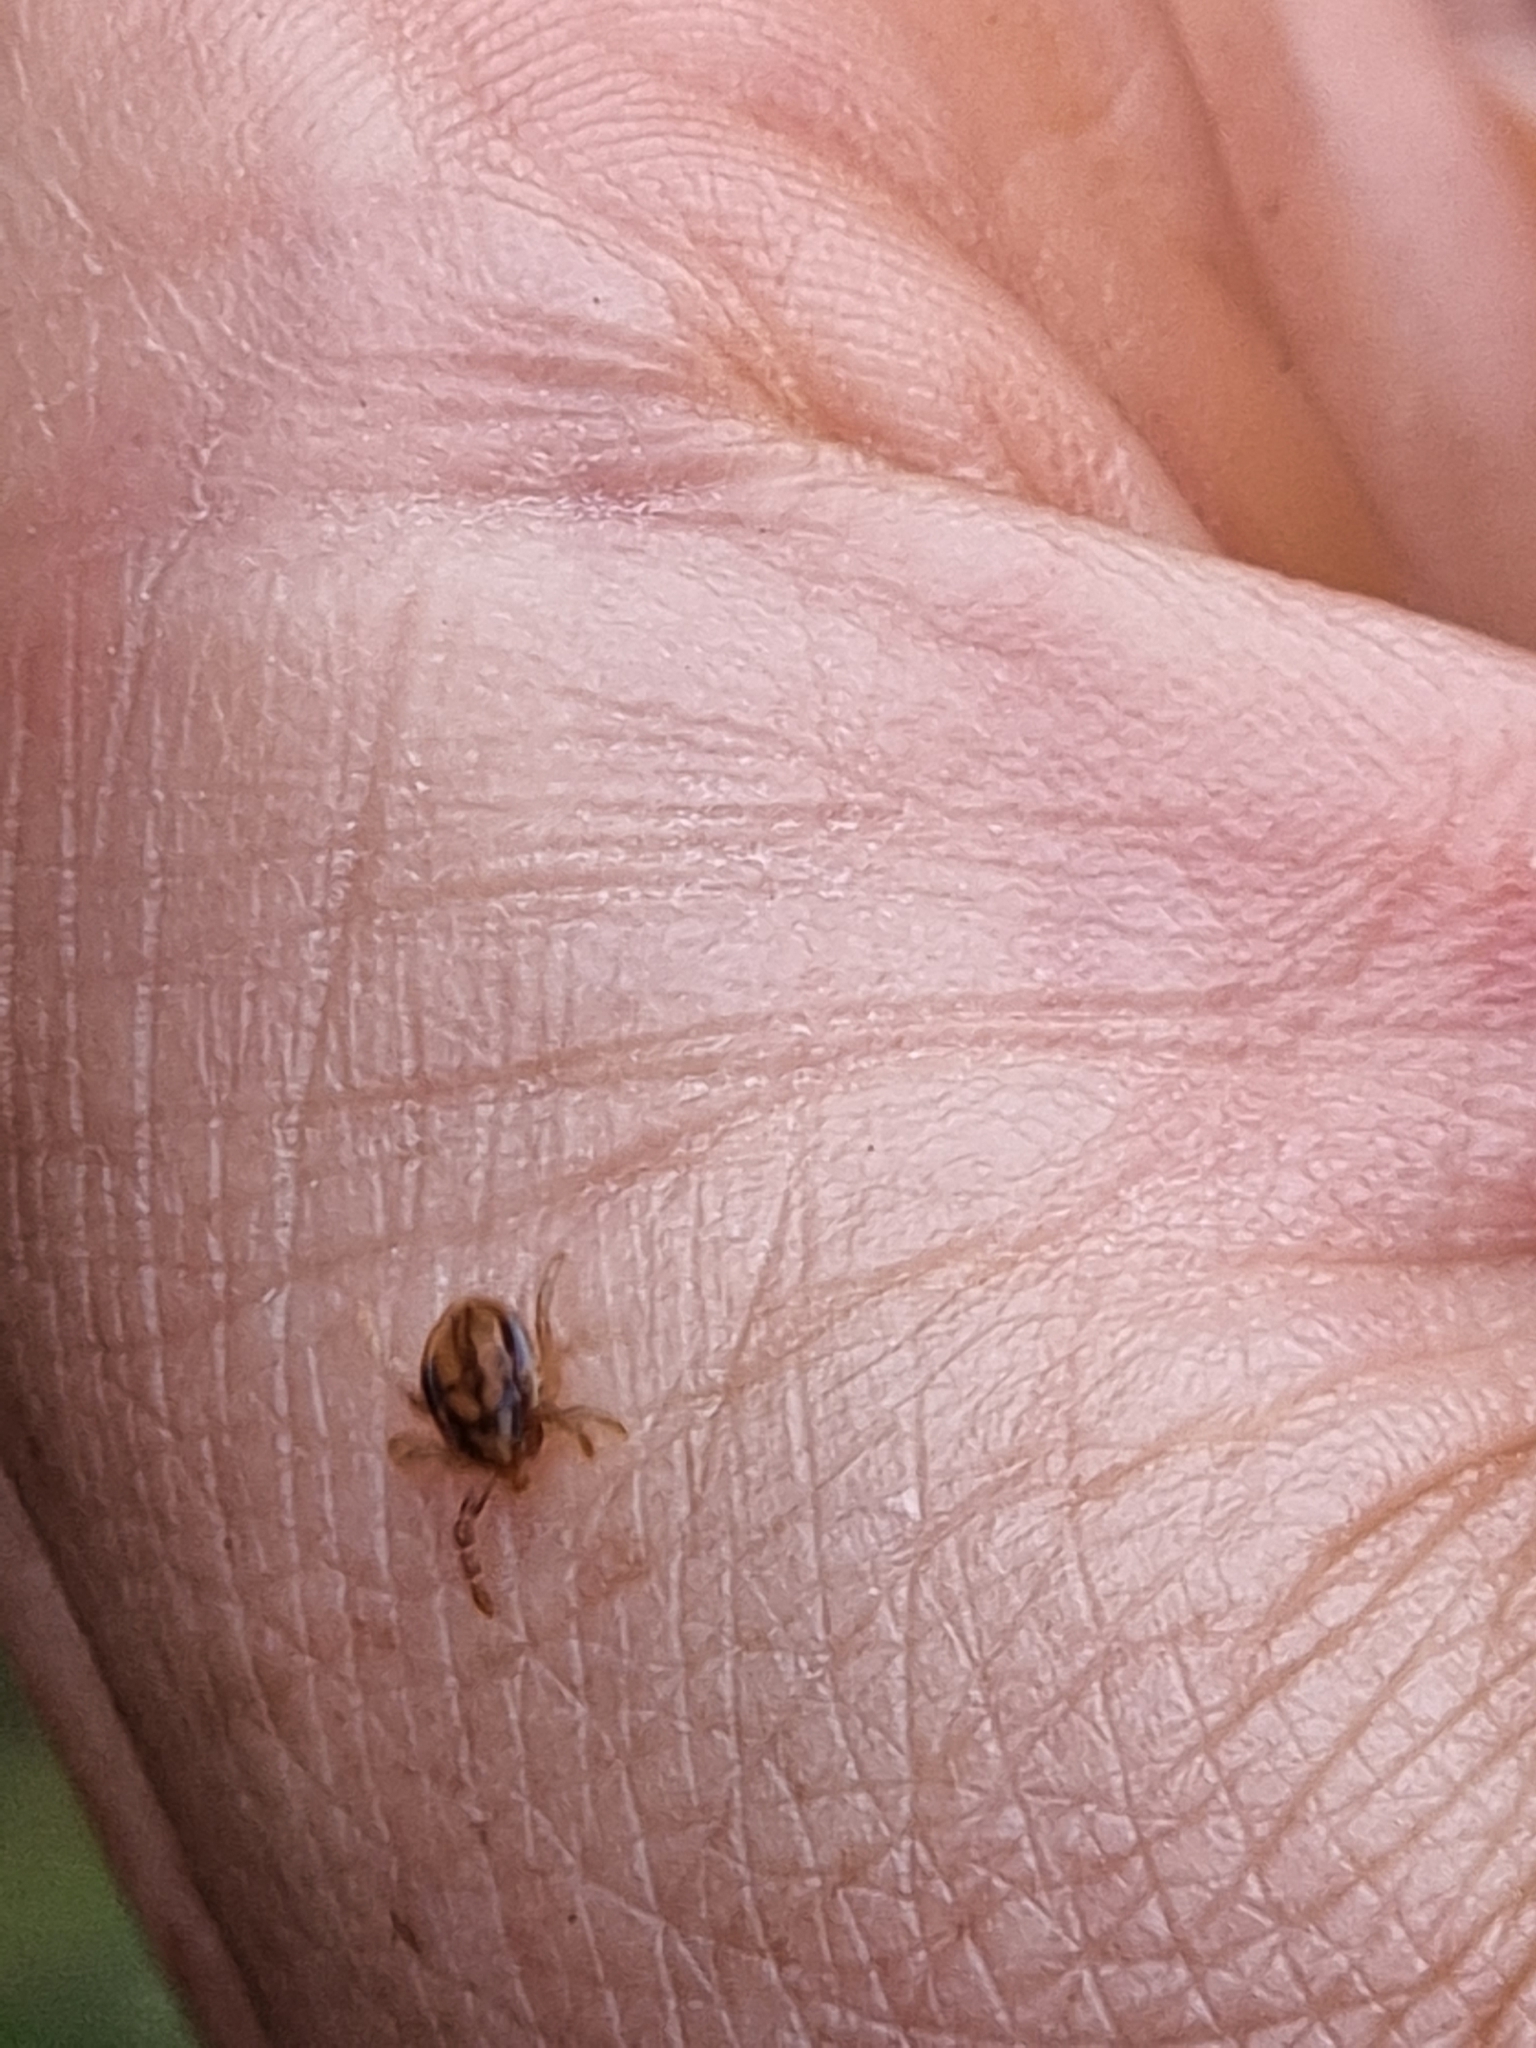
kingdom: Animalia
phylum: Arthropoda
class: Arachnida
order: Ixodida
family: Ixodidae
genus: Ixodes
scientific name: Ixodes holocyclus
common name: Australian paralysis tick
